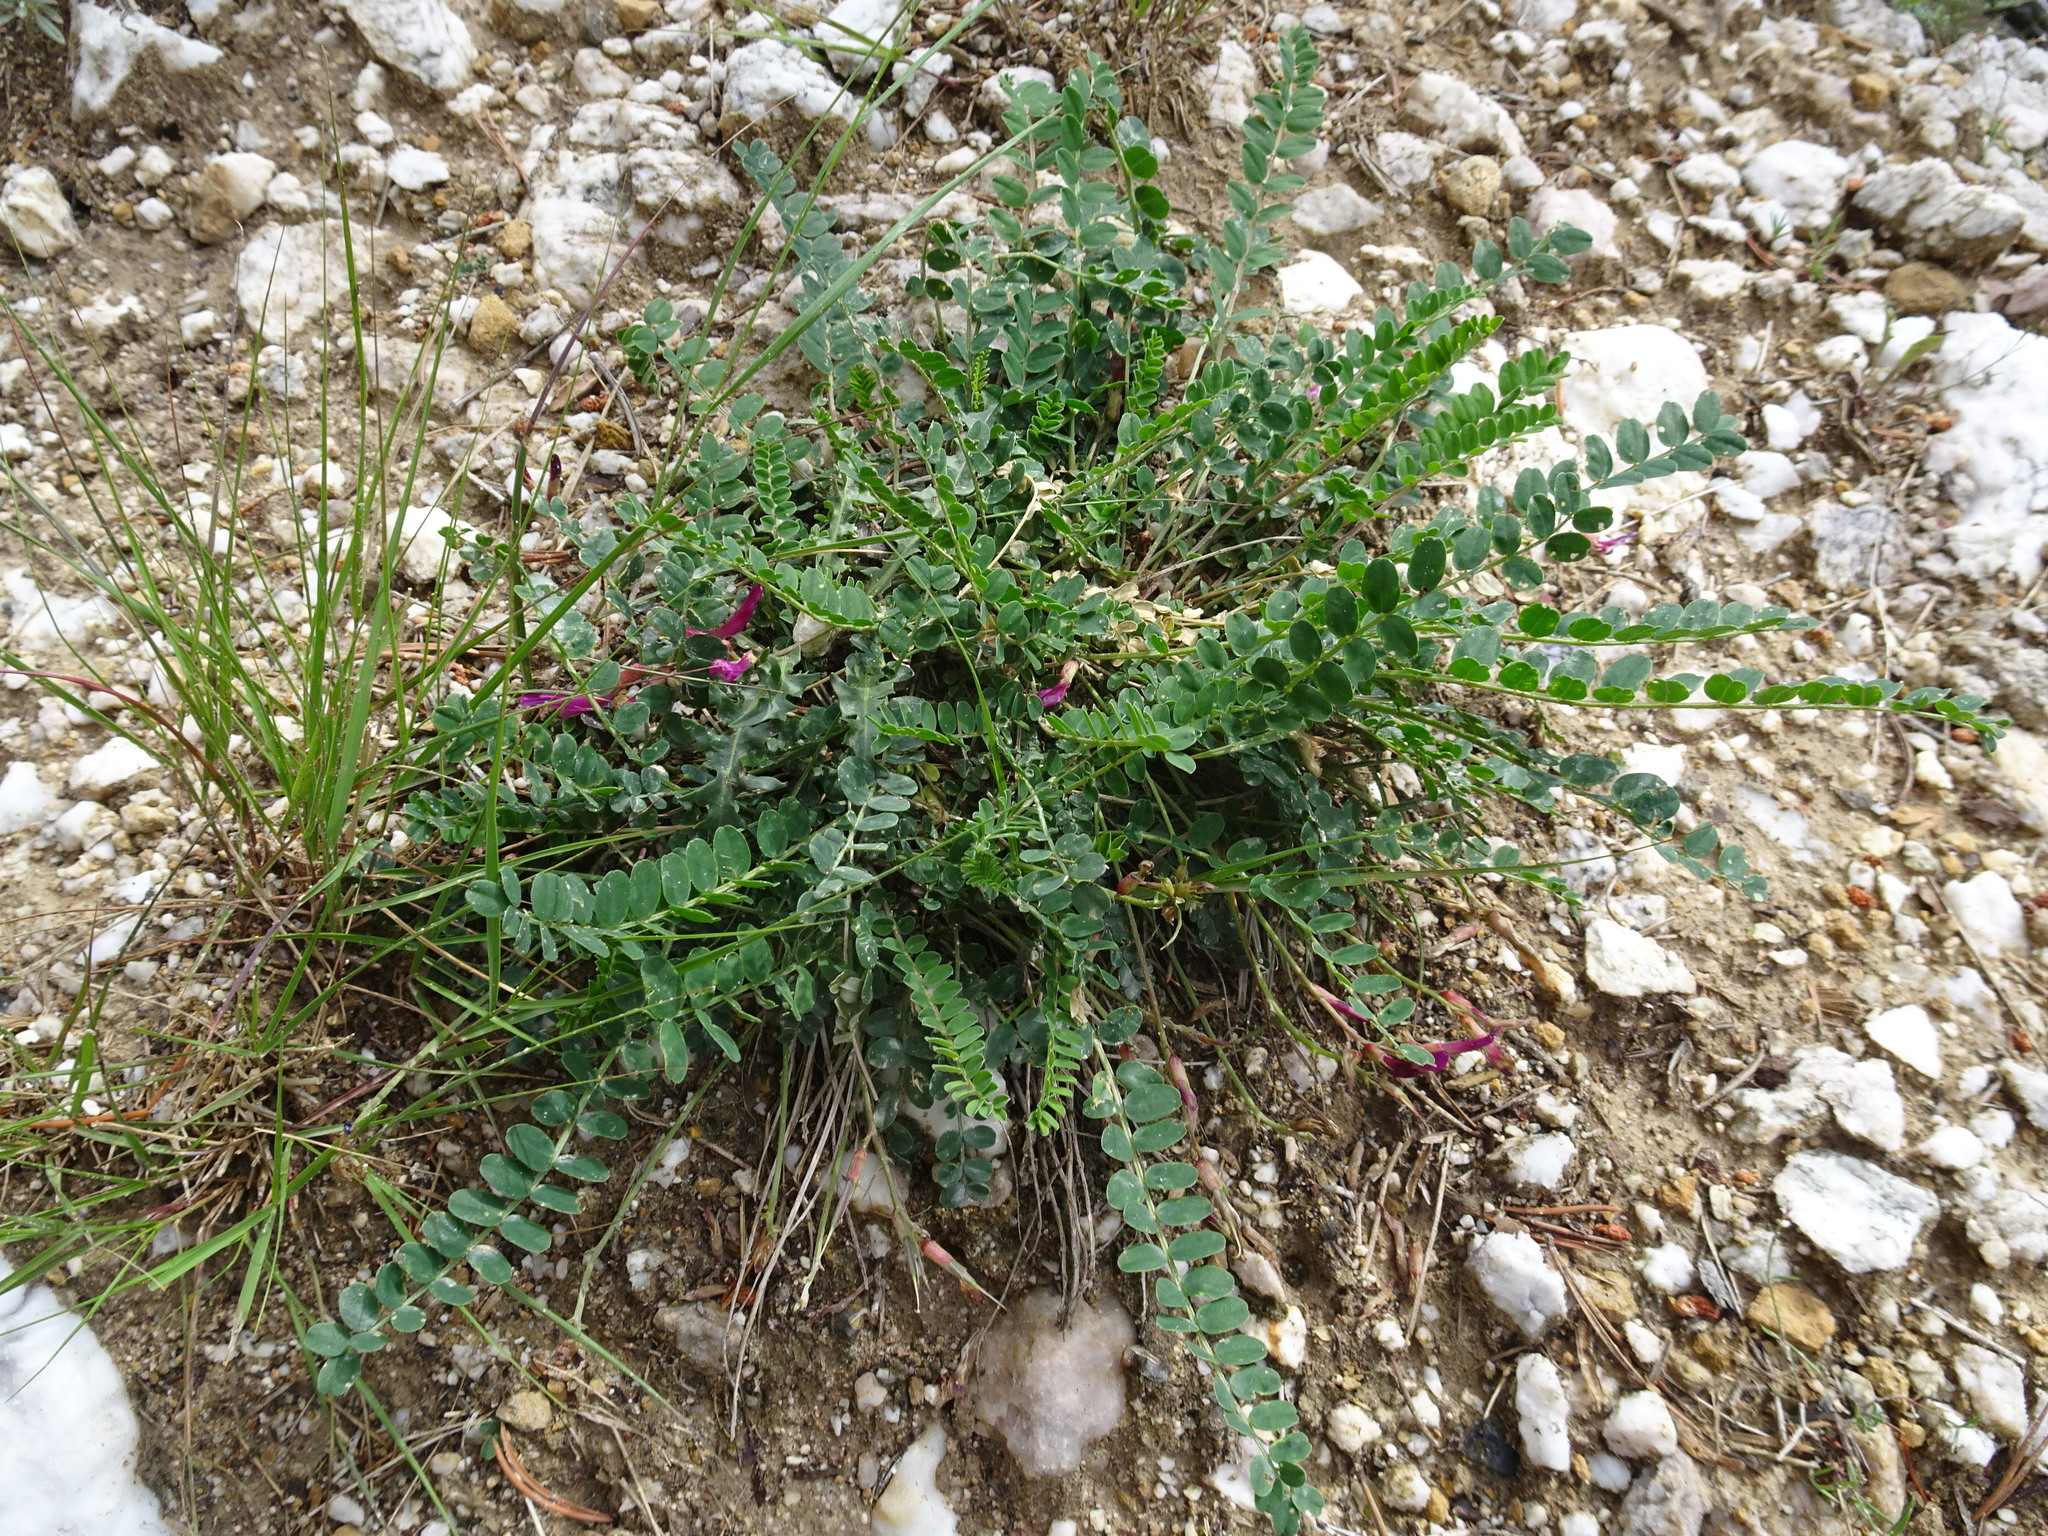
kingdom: Plantae
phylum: Tracheophyta
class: Magnoliopsida
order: Fabales
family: Fabaceae
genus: Astragalus
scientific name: Astragalus monspessulanus
